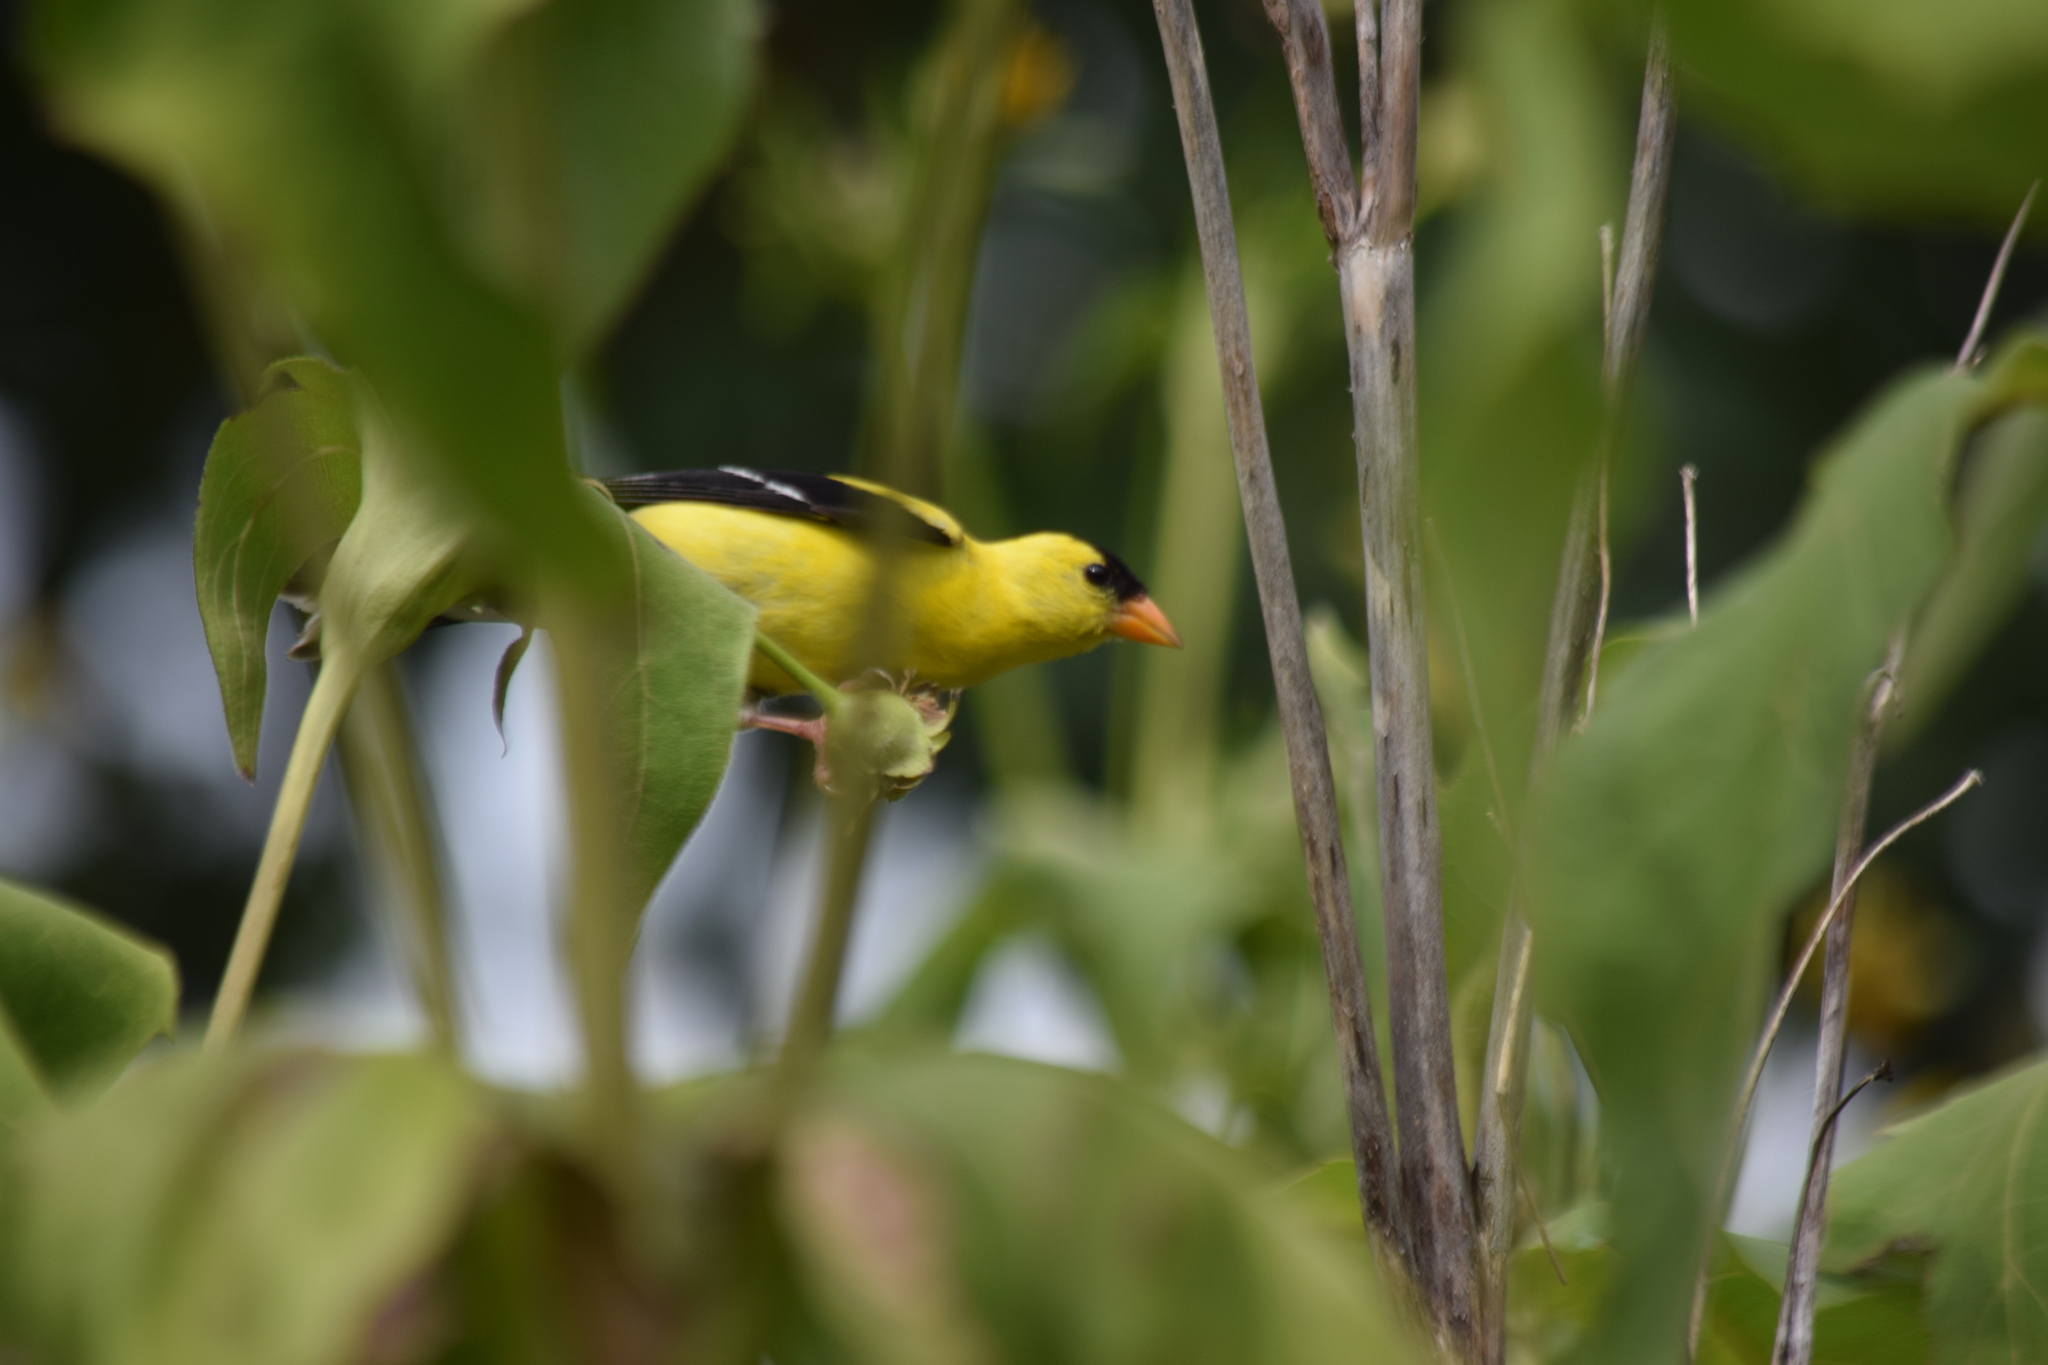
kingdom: Animalia
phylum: Chordata
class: Aves
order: Passeriformes
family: Fringillidae
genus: Spinus
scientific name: Spinus tristis
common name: American goldfinch
